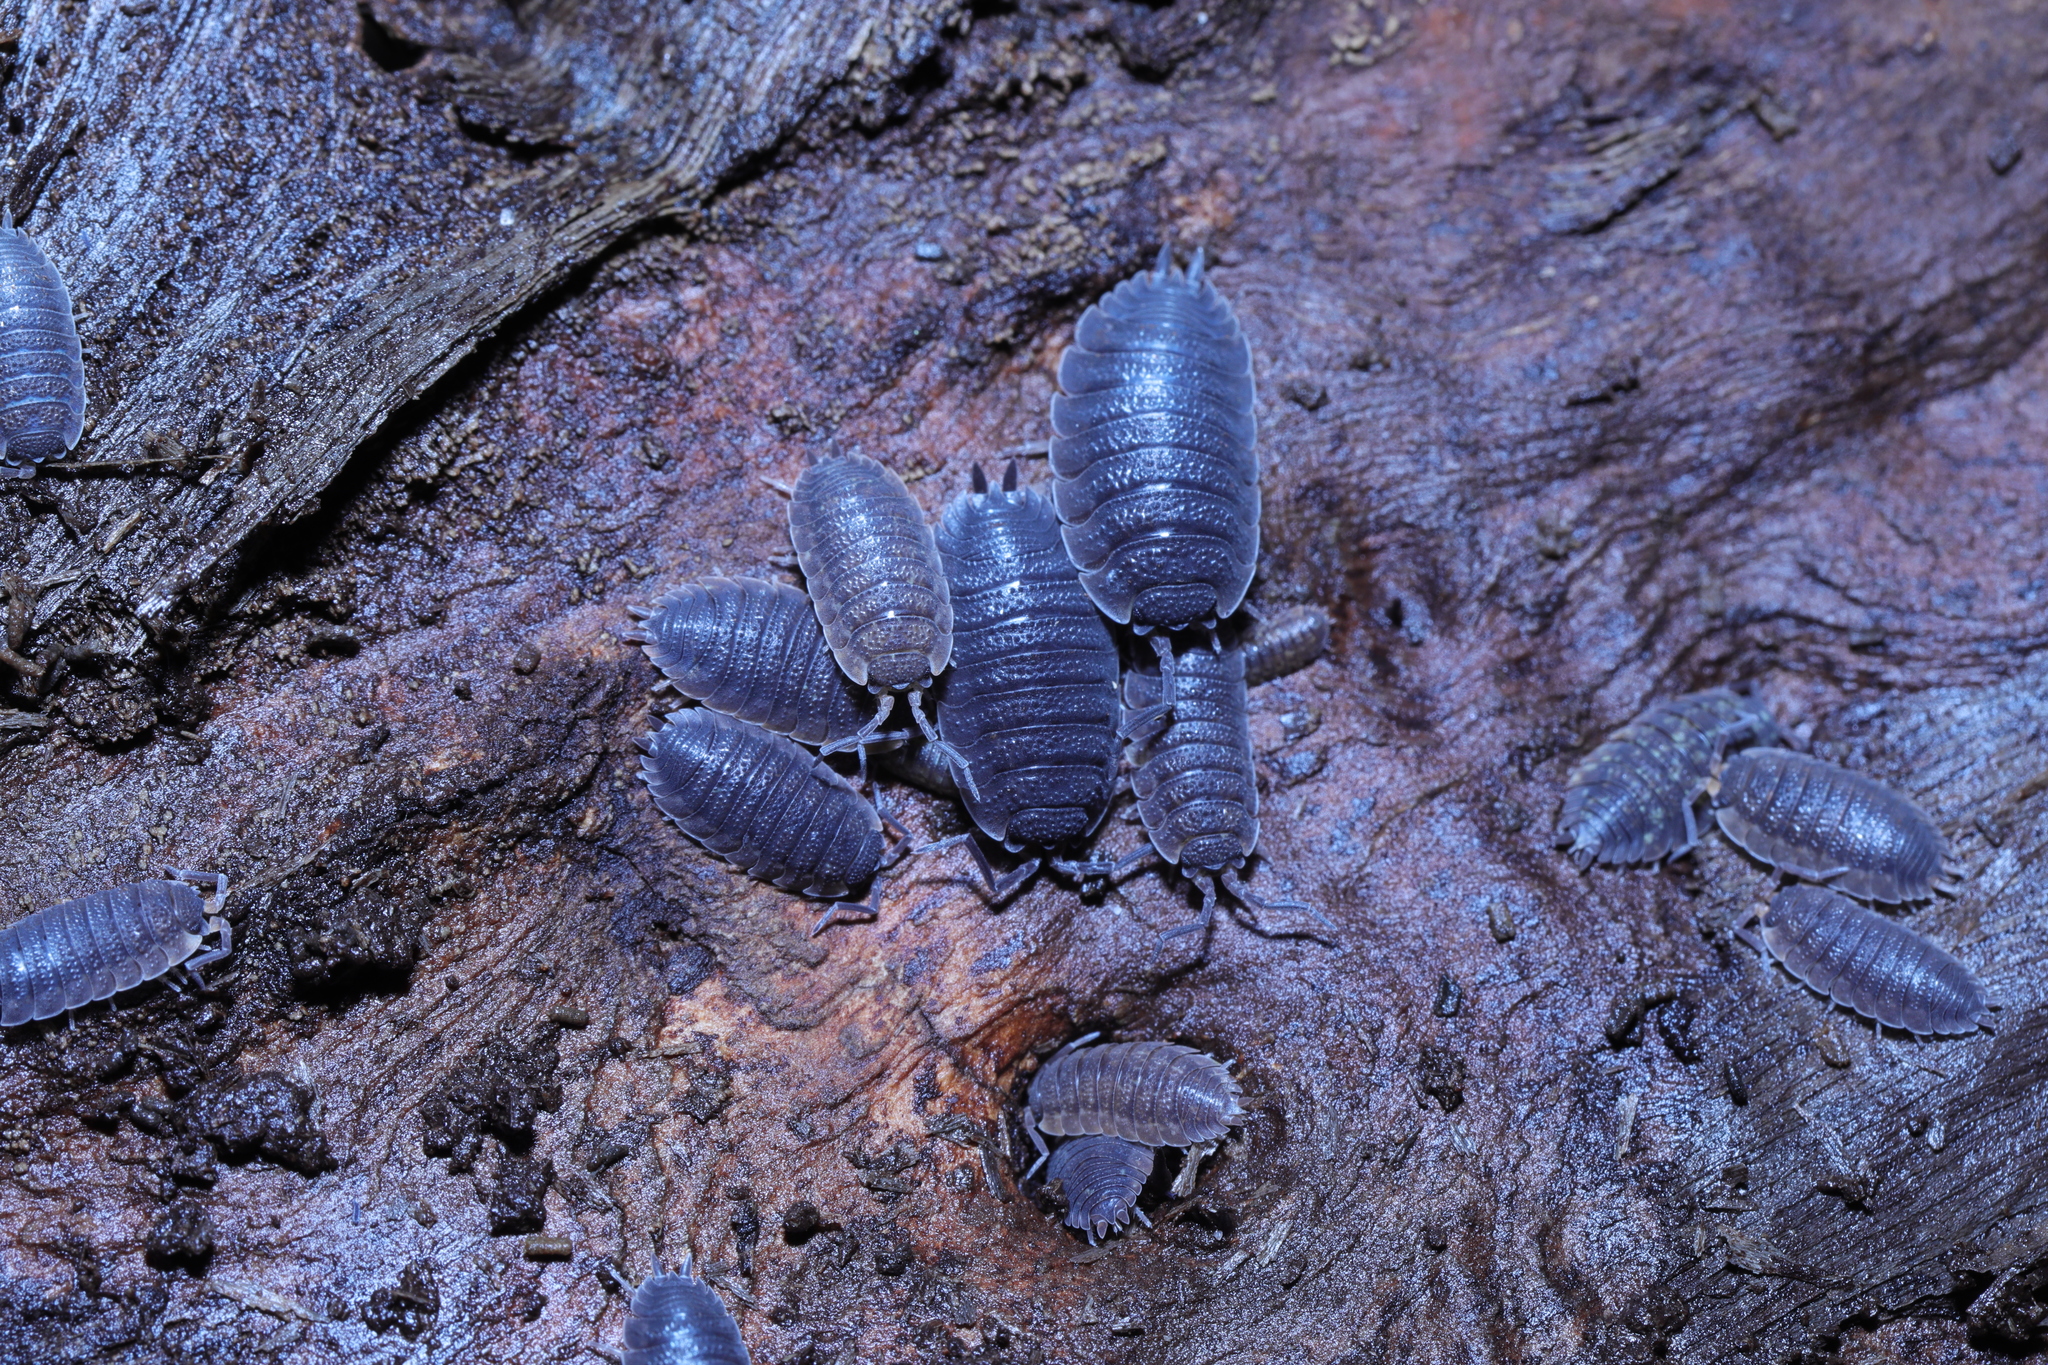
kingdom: Animalia
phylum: Arthropoda
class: Malacostraca
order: Isopoda
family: Porcellionidae
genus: Porcellio
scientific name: Porcellio scaber
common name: Common rough woodlouse
